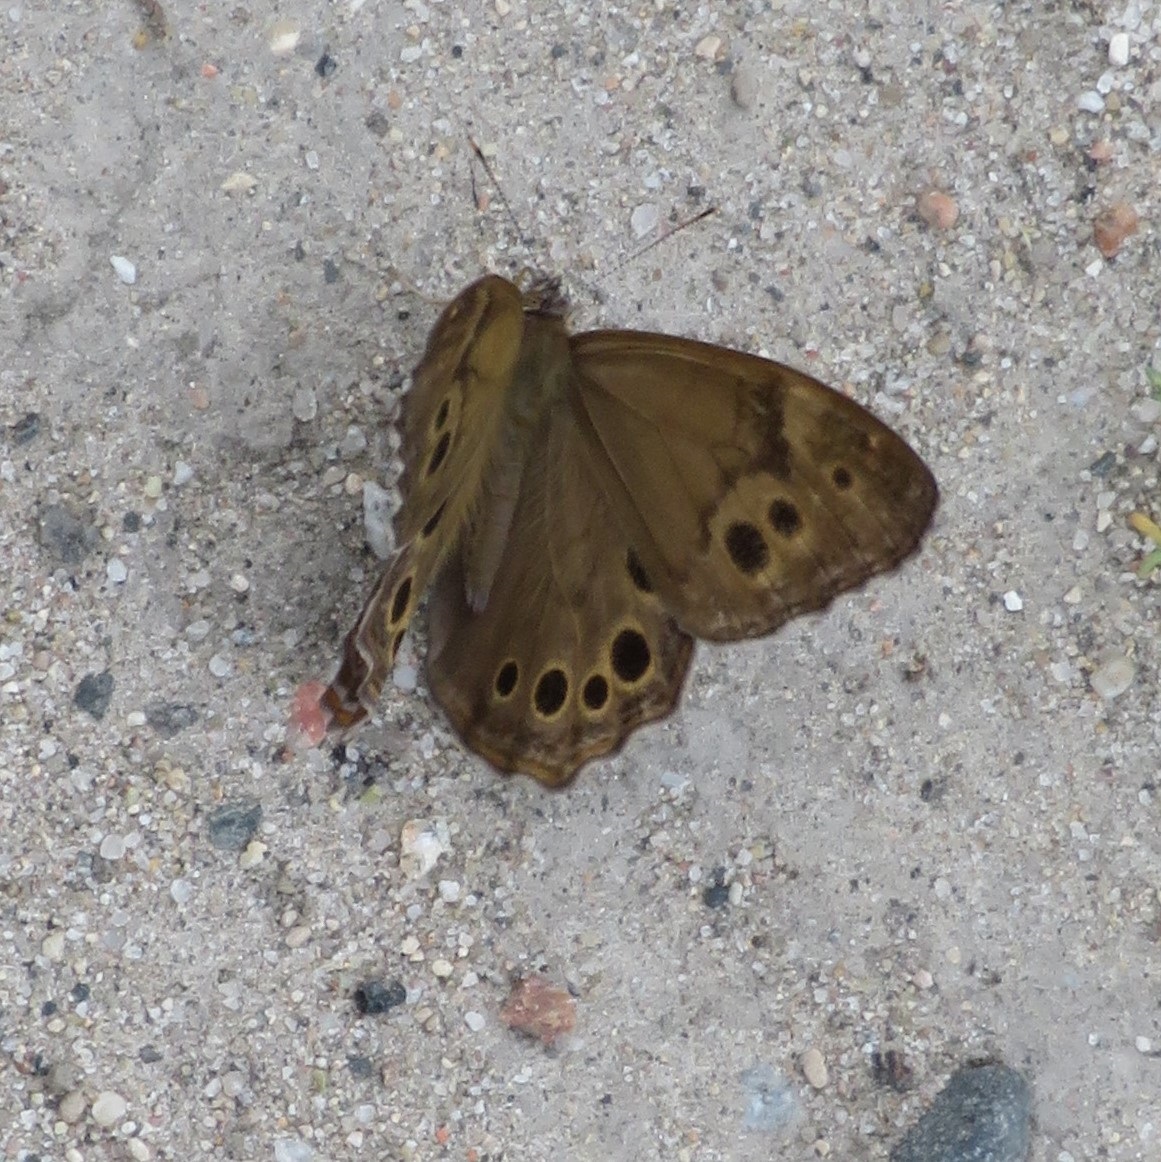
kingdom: Animalia
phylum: Arthropoda
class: Insecta
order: Lepidoptera
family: Nymphalidae
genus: Lethe
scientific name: Lethe anthedon
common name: Northern pearly-eye
